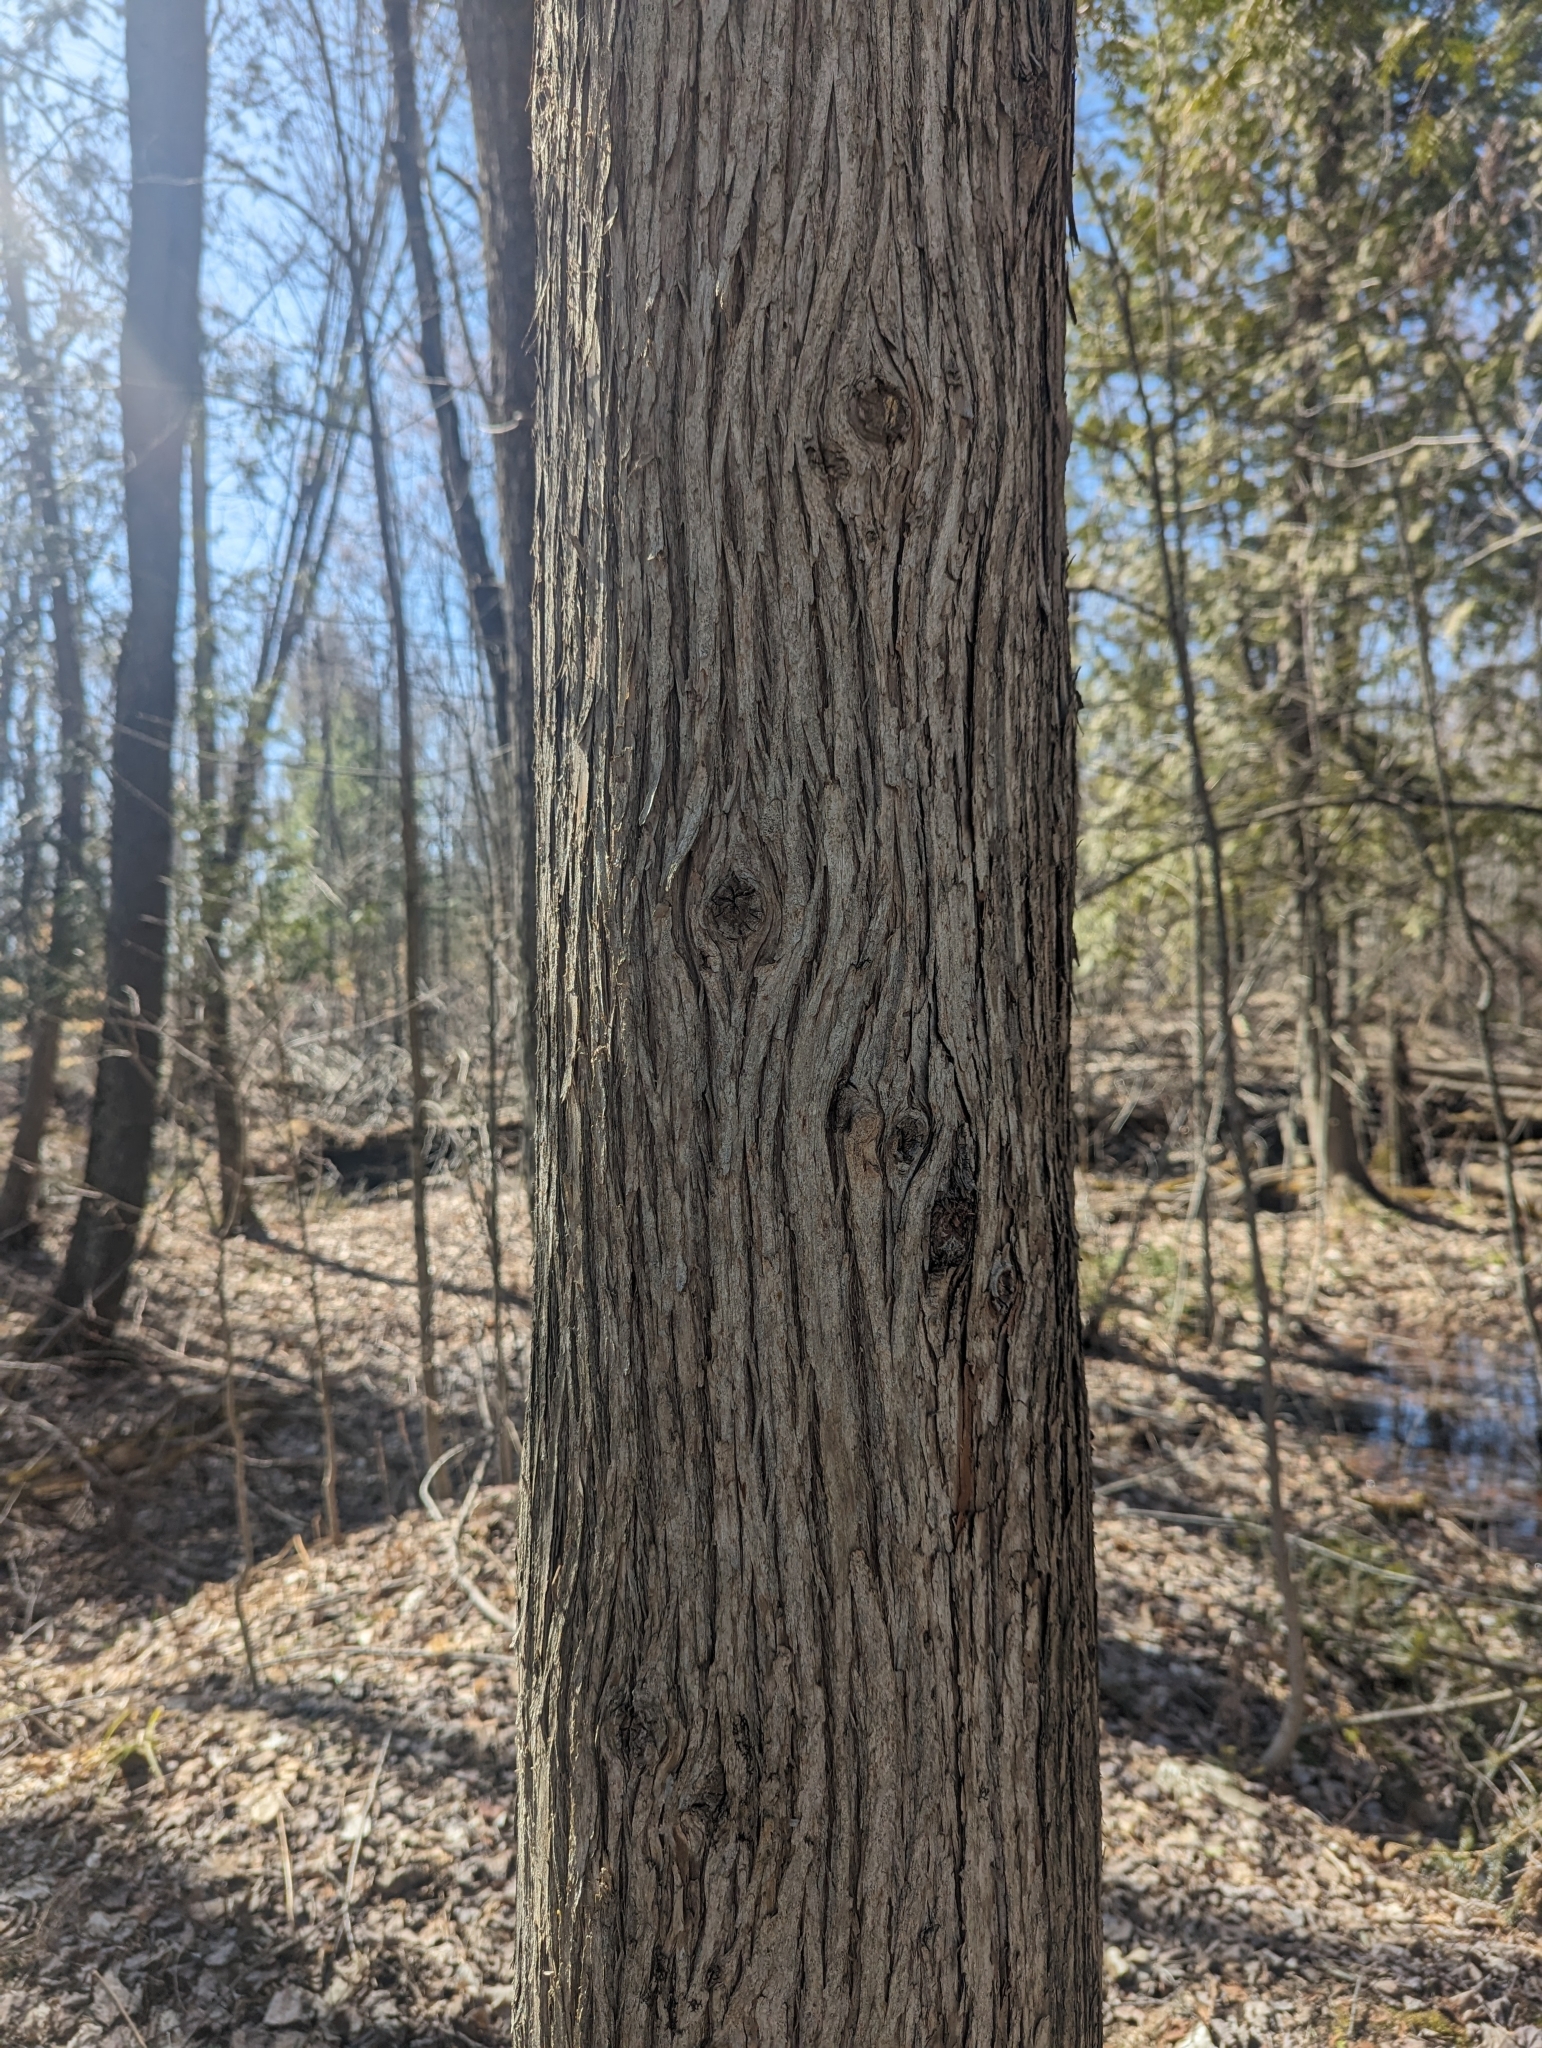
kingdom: Plantae
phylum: Tracheophyta
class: Pinopsida
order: Pinales
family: Cupressaceae
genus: Thuja
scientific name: Thuja occidentalis
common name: Northern white-cedar
